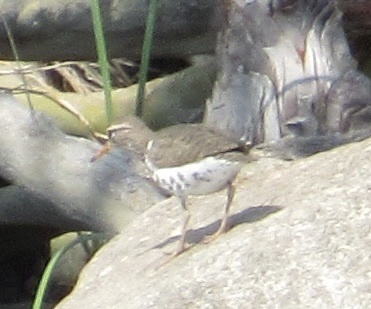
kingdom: Animalia
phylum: Chordata
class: Aves
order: Charadriiformes
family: Scolopacidae
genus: Actitis
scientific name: Actitis macularius
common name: Spotted sandpiper
